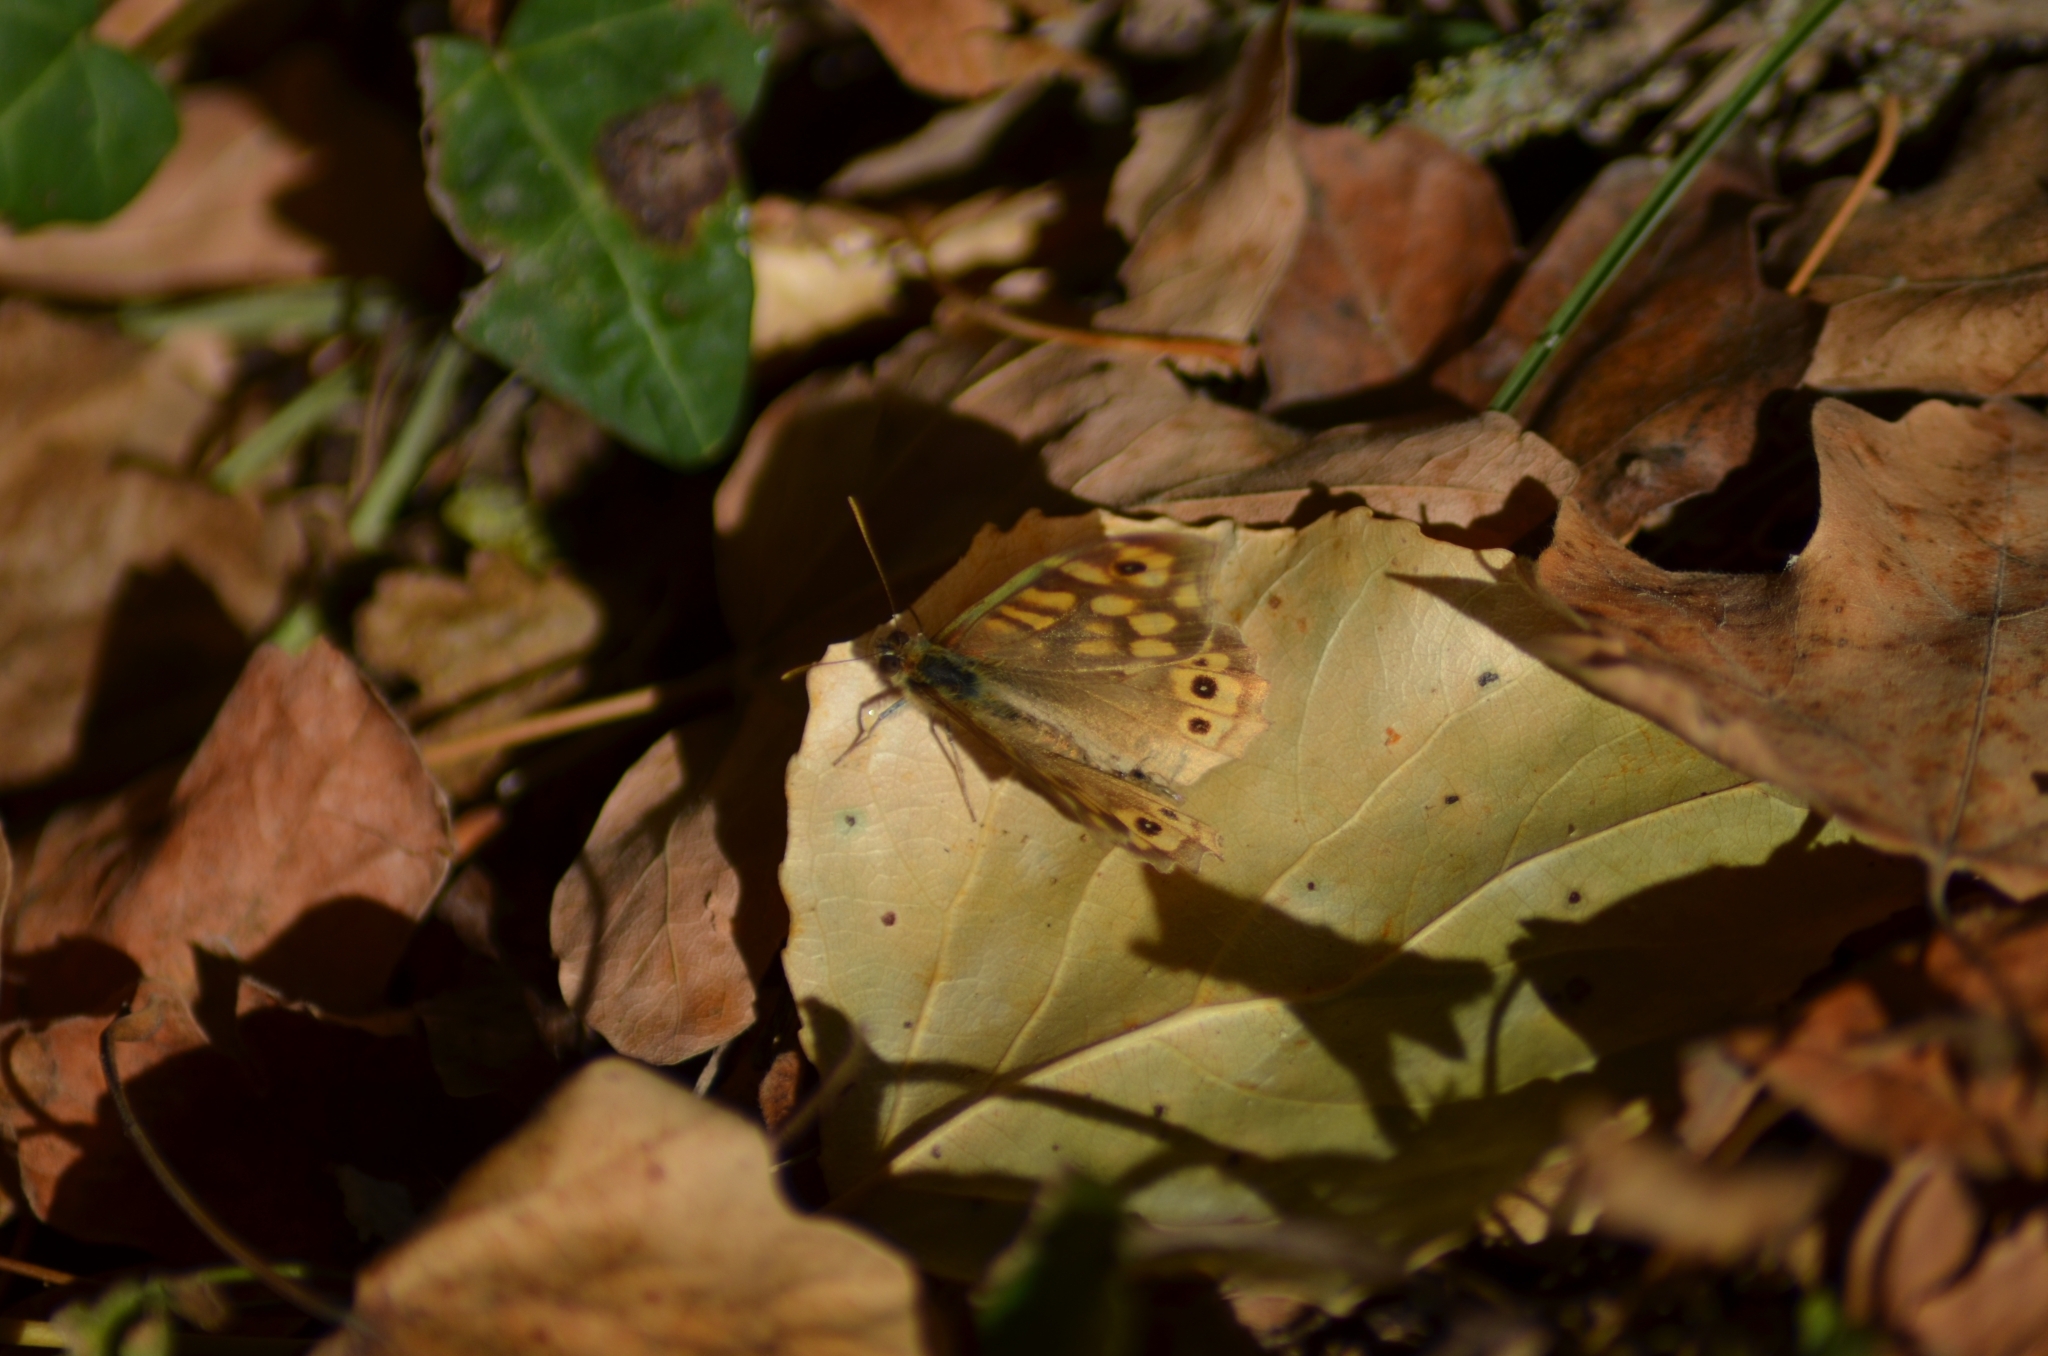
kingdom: Animalia
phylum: Arthropoda
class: Insecta
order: Lepidoptera
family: Nymphalidae
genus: Pararge
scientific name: Pararge aegeria
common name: Speckled wood
